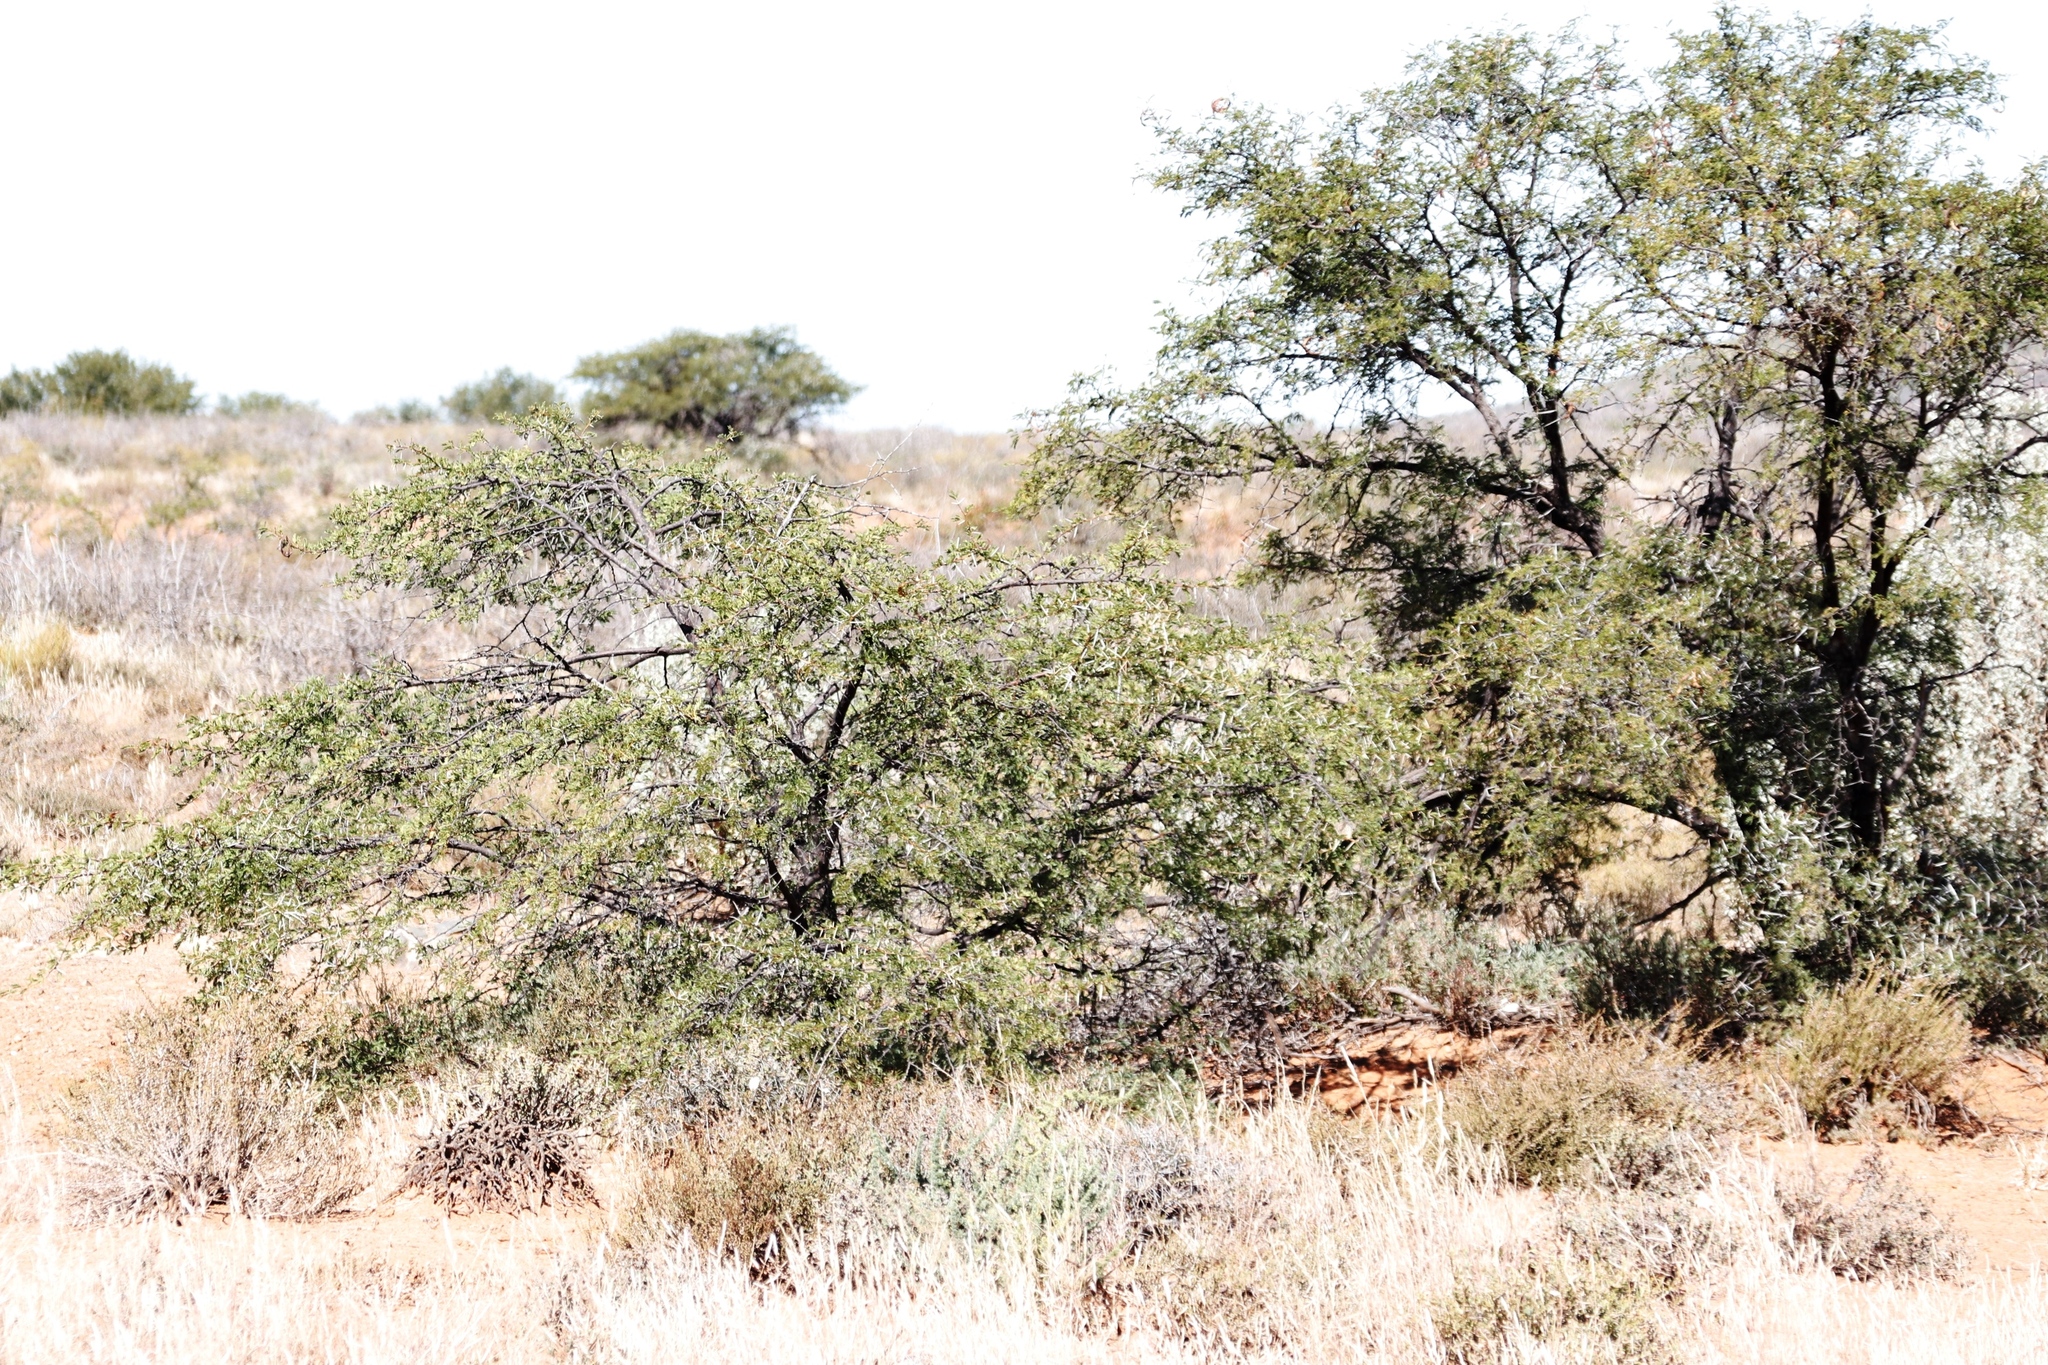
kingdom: Plantae
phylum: Tracheophyta
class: Magnoliopsida
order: Fabales
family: Fabaceae
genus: Vachellia
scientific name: Vachellia karroo
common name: Sweet thorn
